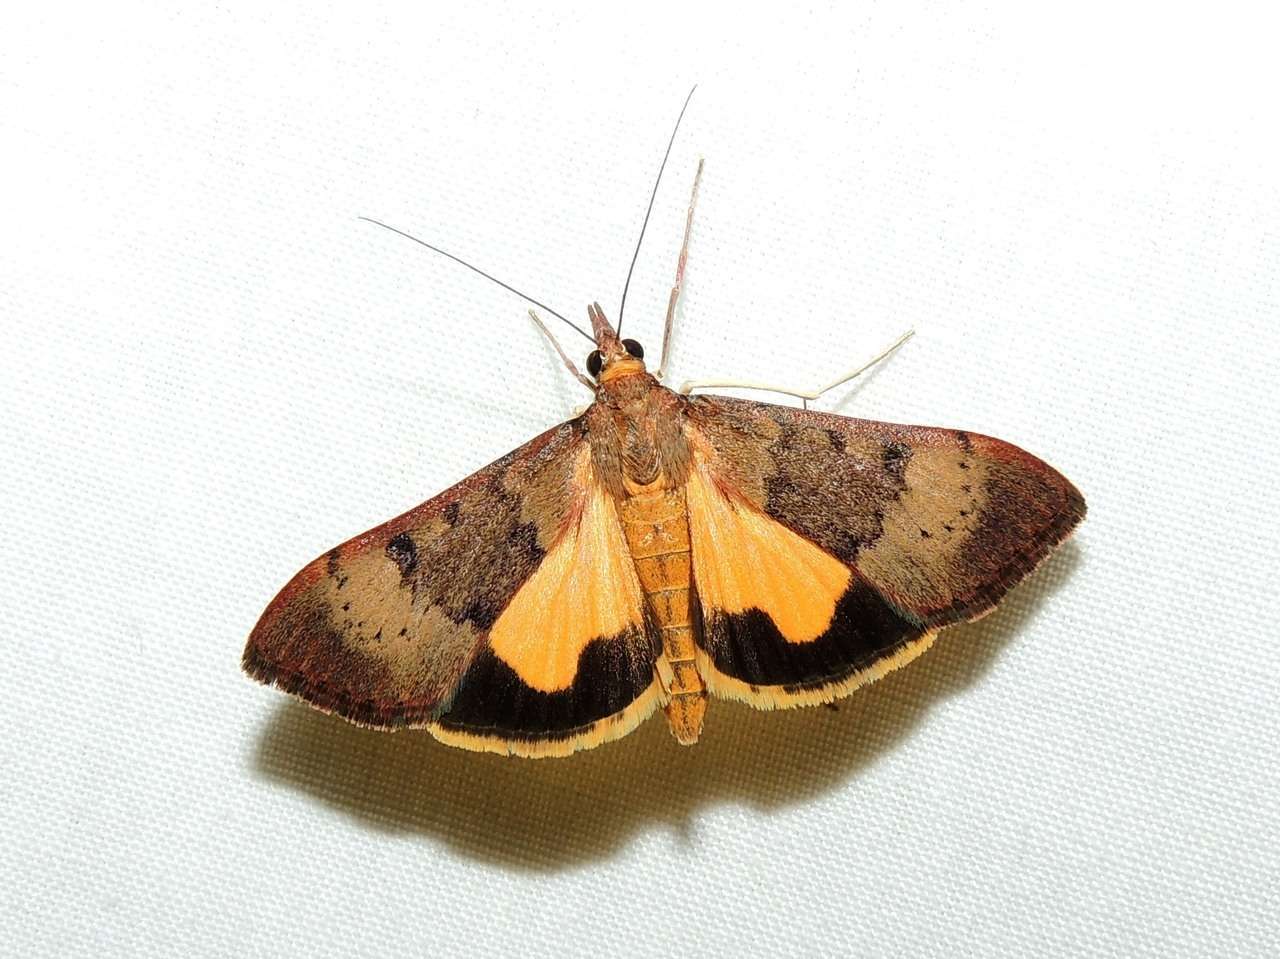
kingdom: Animalia
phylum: Arthropoda
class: Insecta
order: Lepidoptera
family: Crambidae
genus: Uresiphita
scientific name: Uresiphita ornithopteralis
